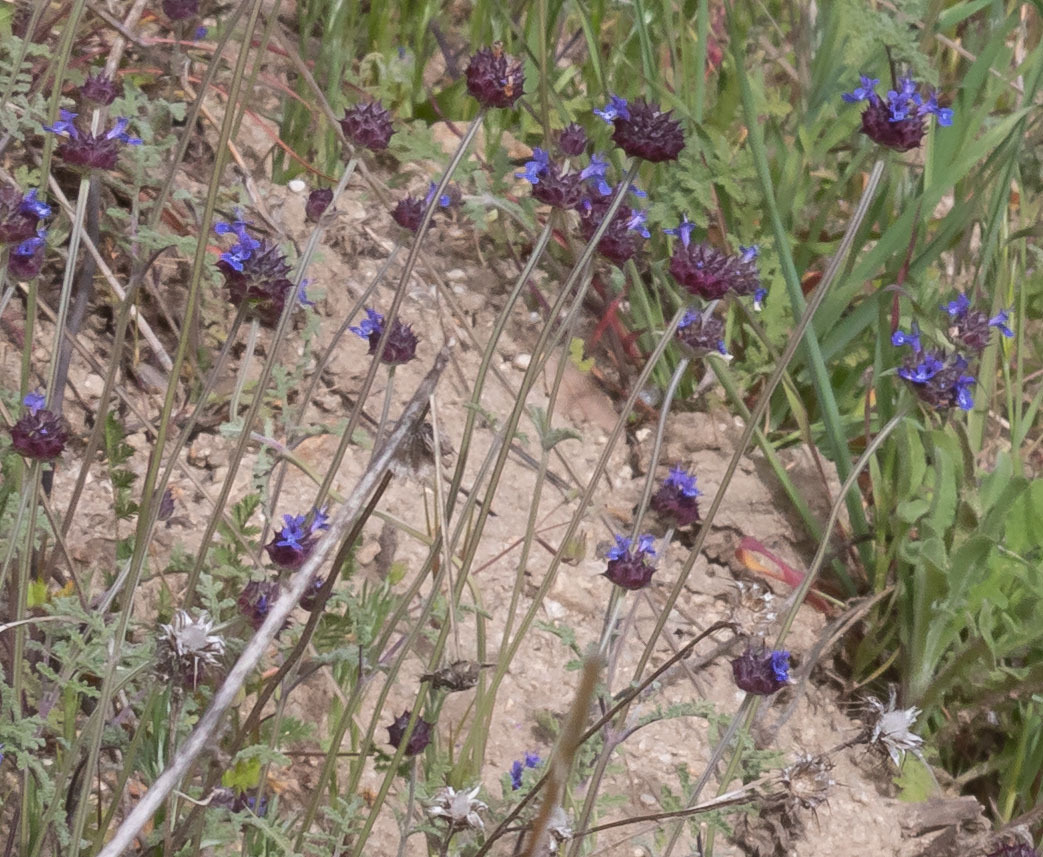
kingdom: Plantae
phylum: Tracheophyta
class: Magnoliopsida
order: Lamiales
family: Lamiaceae
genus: Salvia
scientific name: Salvia columbariae
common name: Chia
